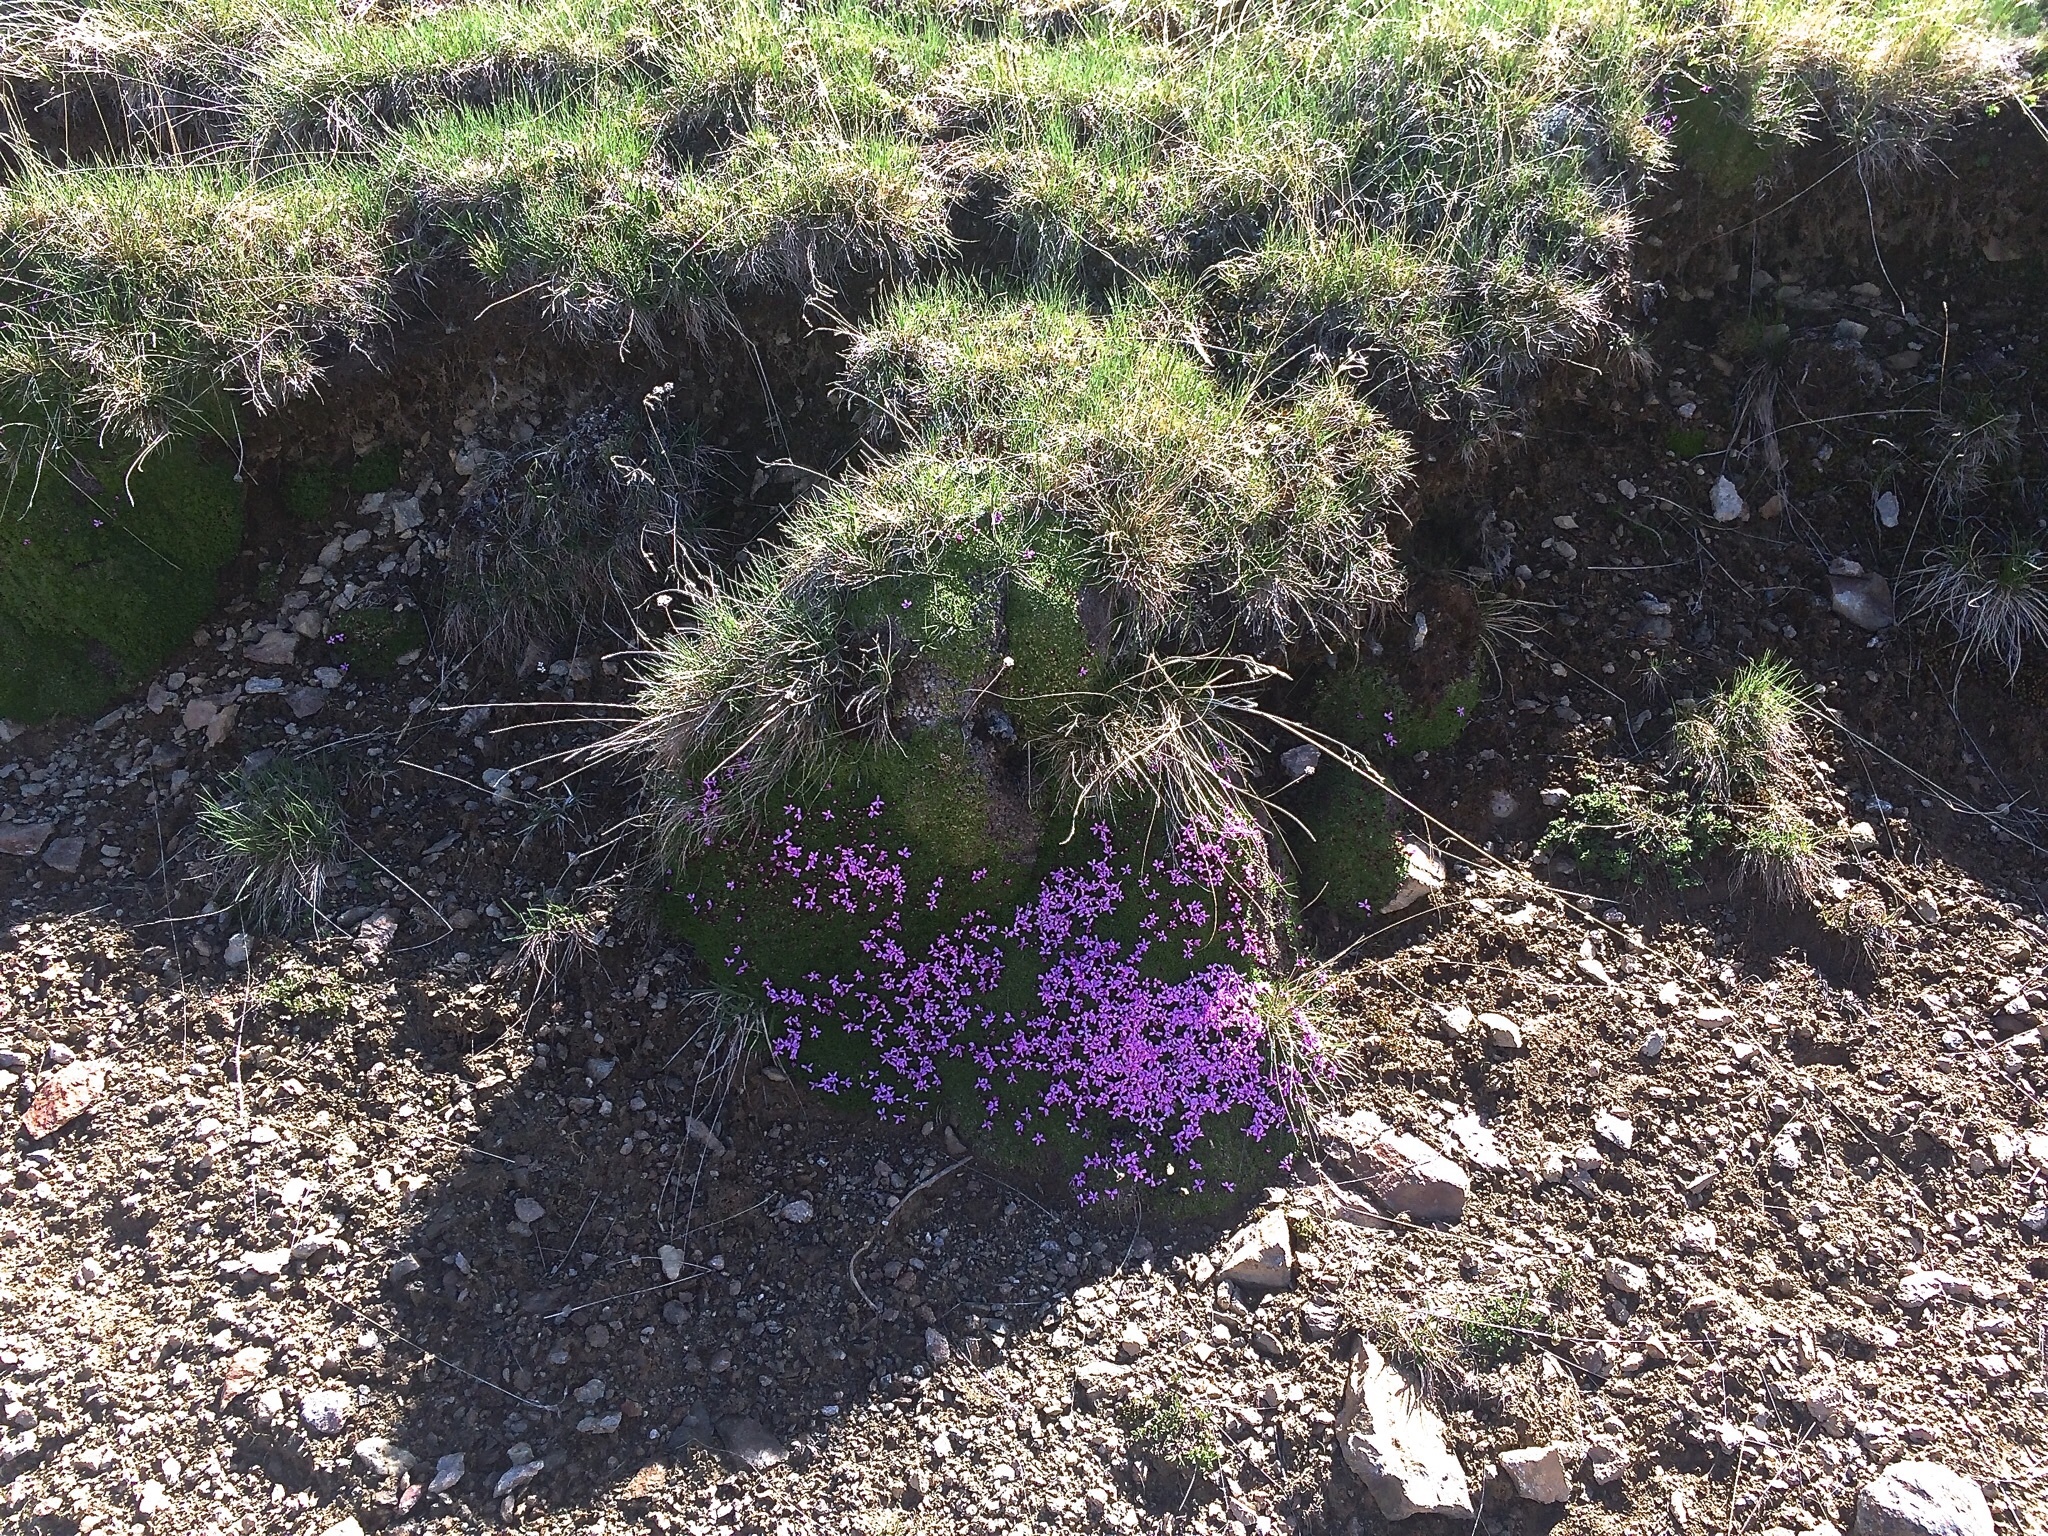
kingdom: Plantae
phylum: Tracheophyta
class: Magnoliopsida
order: Caryophyllales
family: Caryophyllaceae
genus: Silene
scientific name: Silene acaulis
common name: Moss campion
